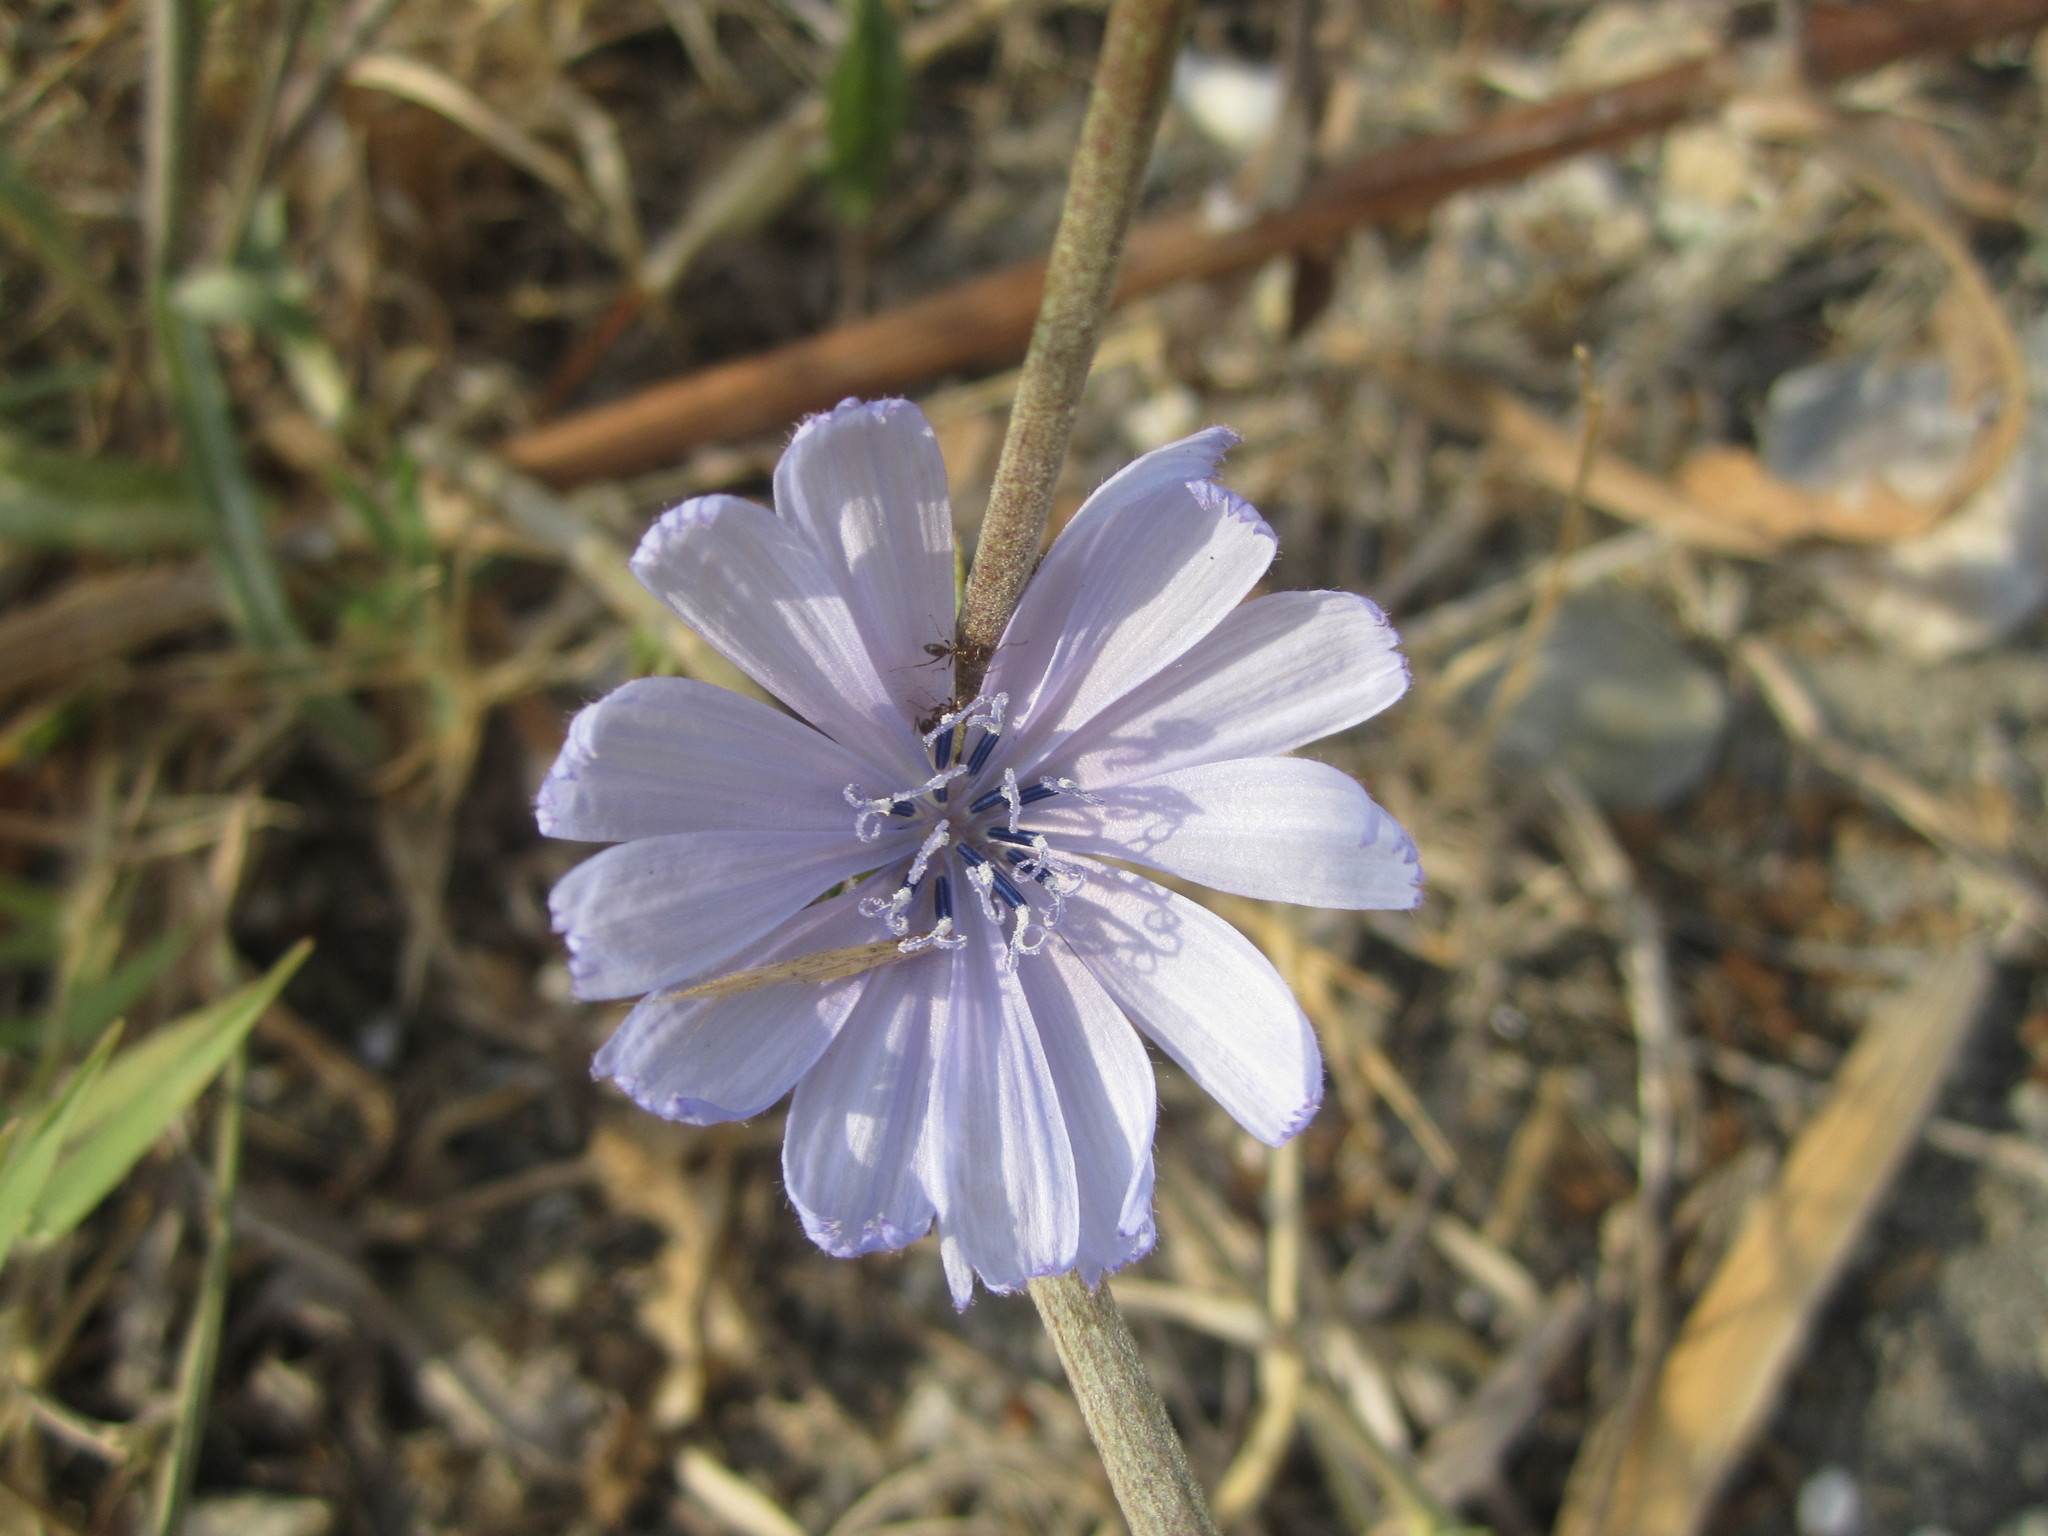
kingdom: Plantae
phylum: Tracheophyta
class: Magnoliopsida
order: Asterales
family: Asteraceae
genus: Cichorium
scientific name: Cichorium intybus
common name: Chicory
